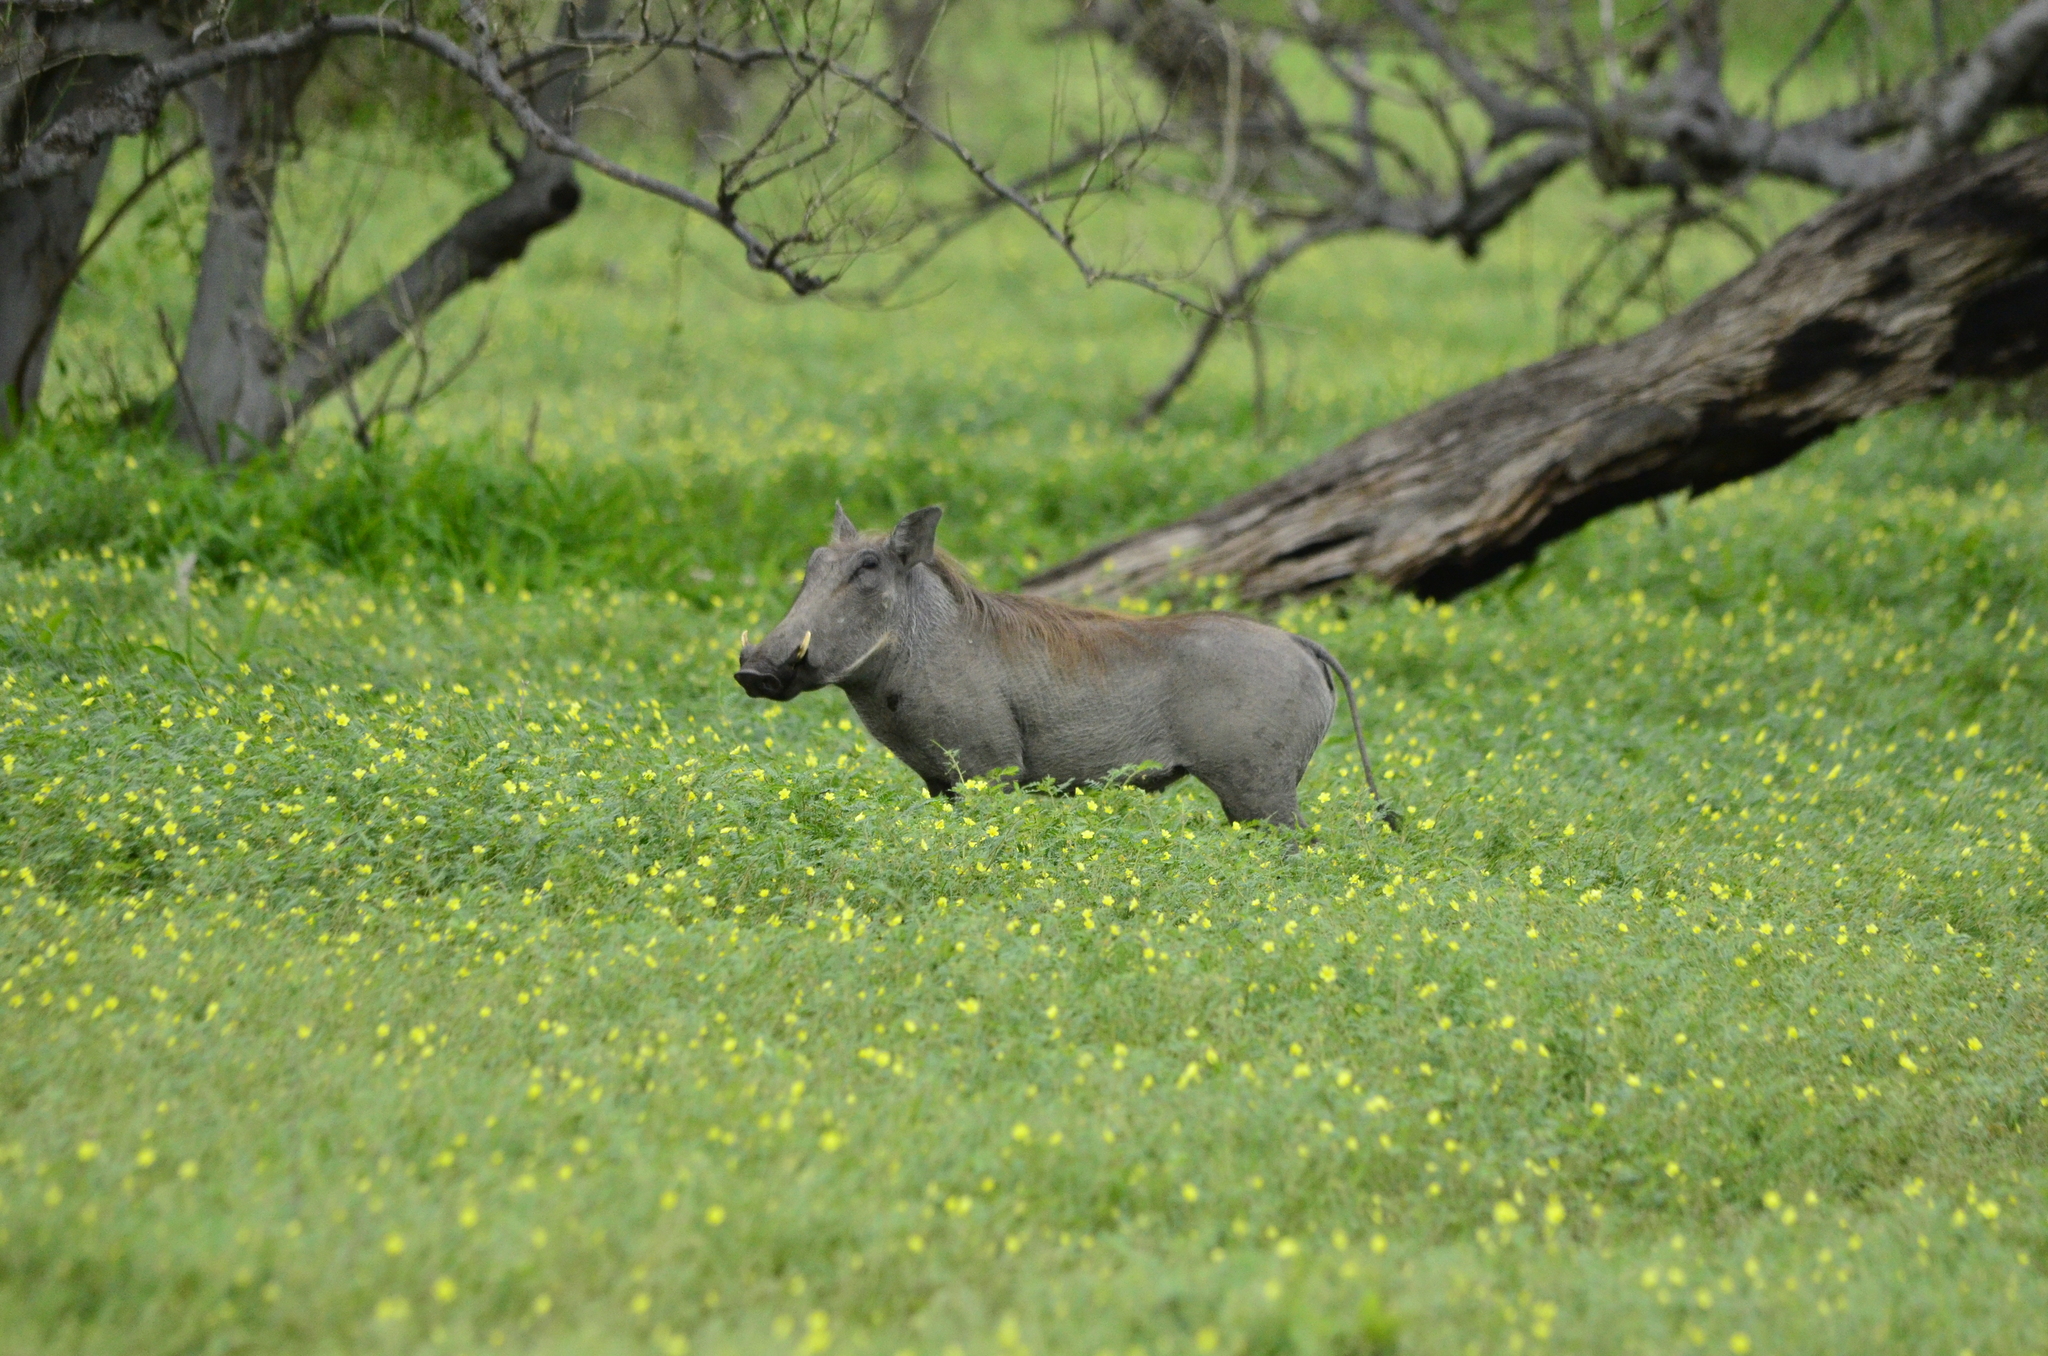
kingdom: Animalia
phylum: Chordata
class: Mammalia
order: Artiodactyla
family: Suidae
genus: Phacochoerus
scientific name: Phacochoerus africanus
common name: Common warthog
